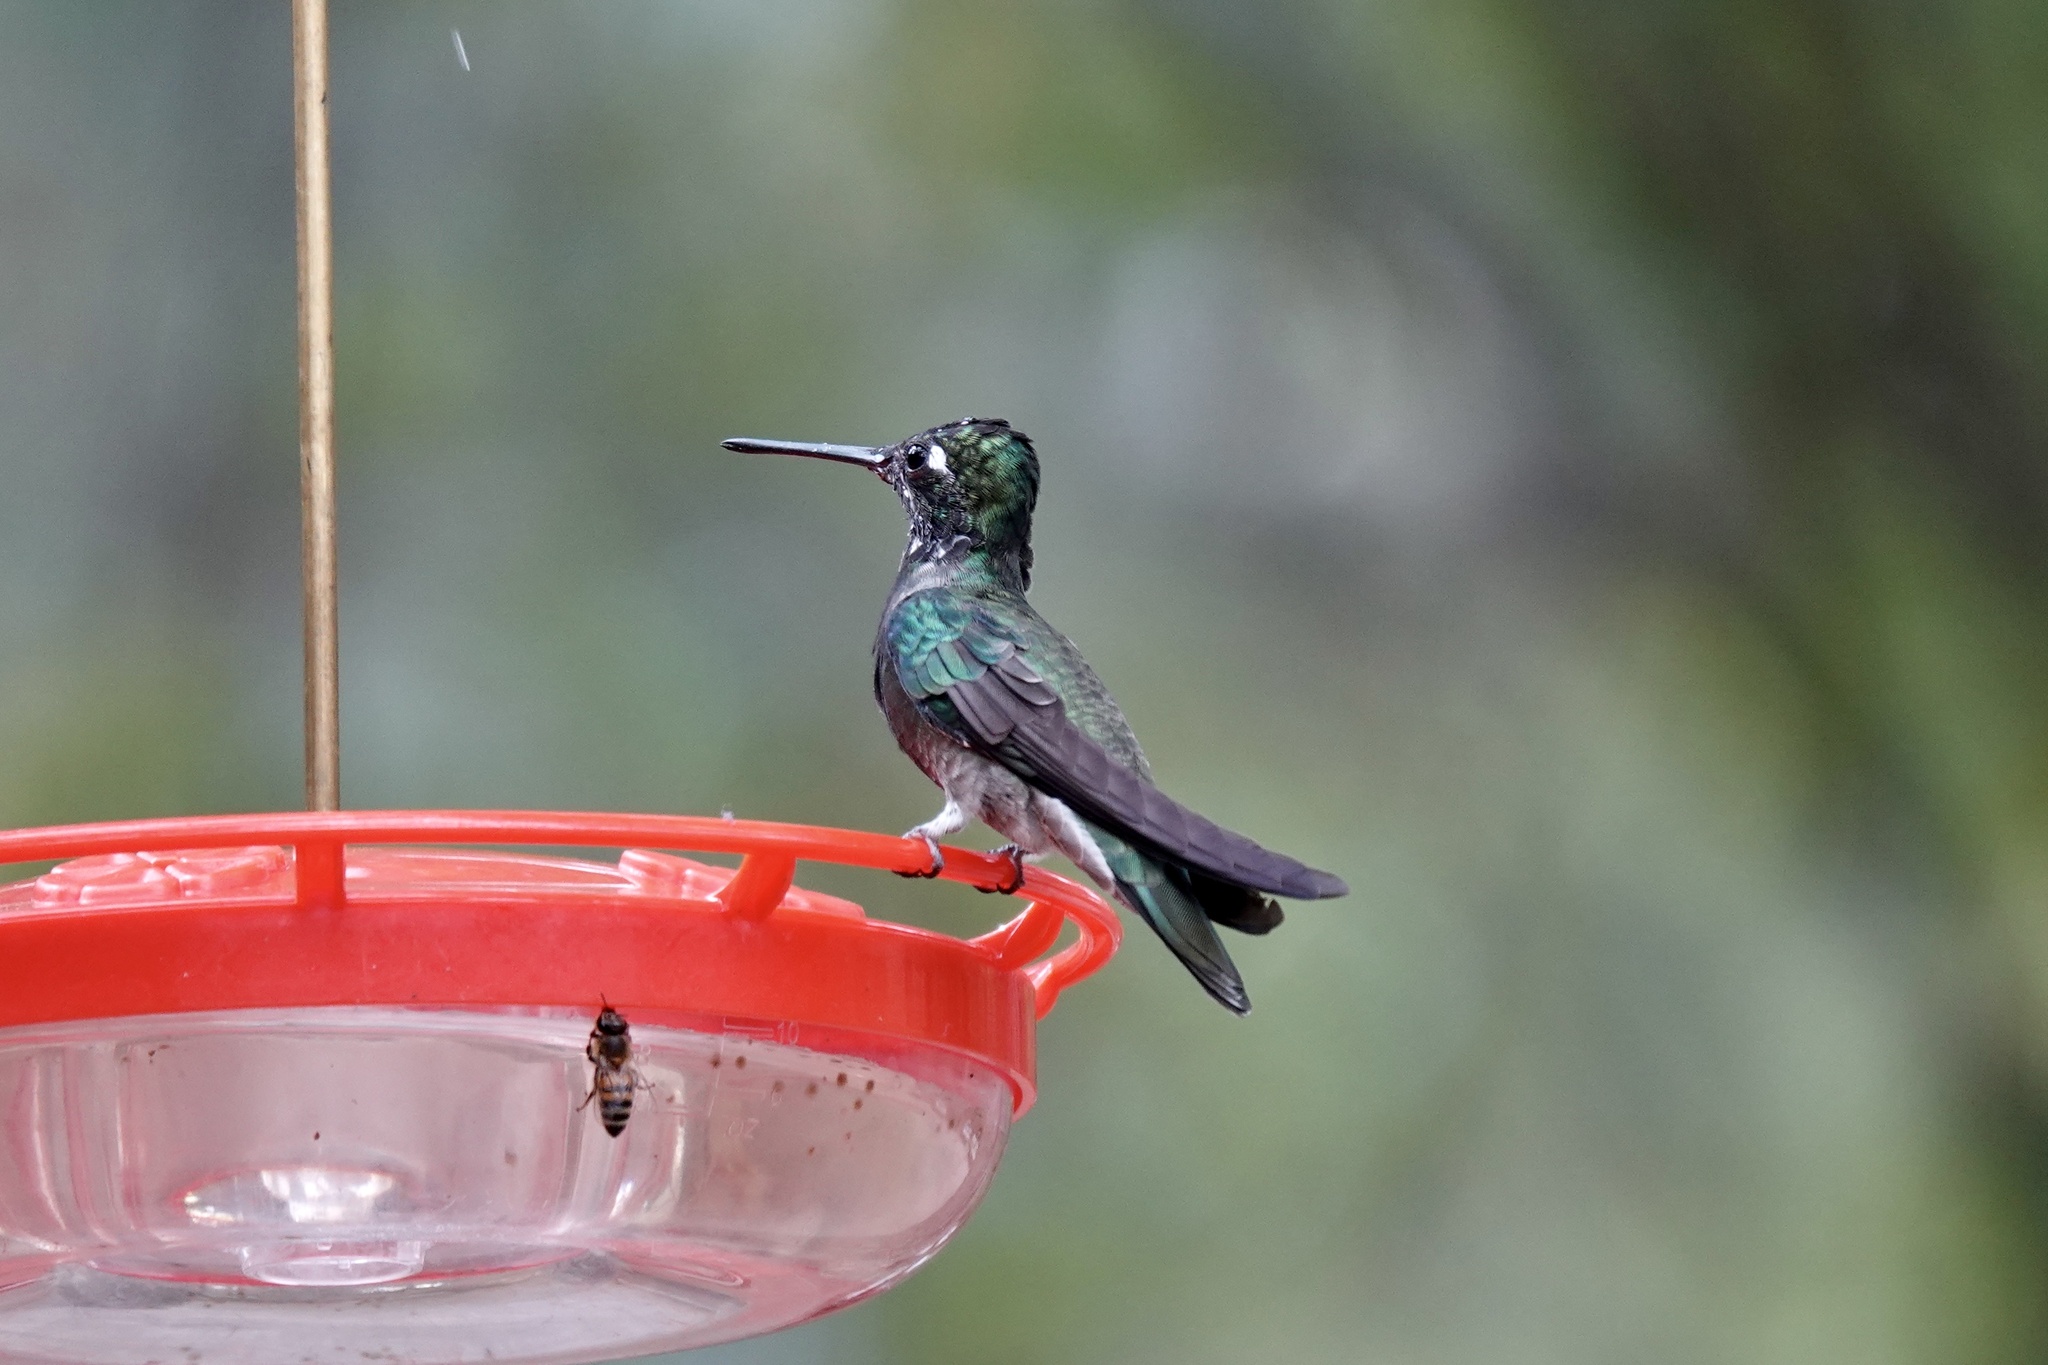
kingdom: Animalia
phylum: Chordata
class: Aves
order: Apodiformes
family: Trochilidae
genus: Eugenes
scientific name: Eugenes fulgens
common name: Magnificent hummingbird
